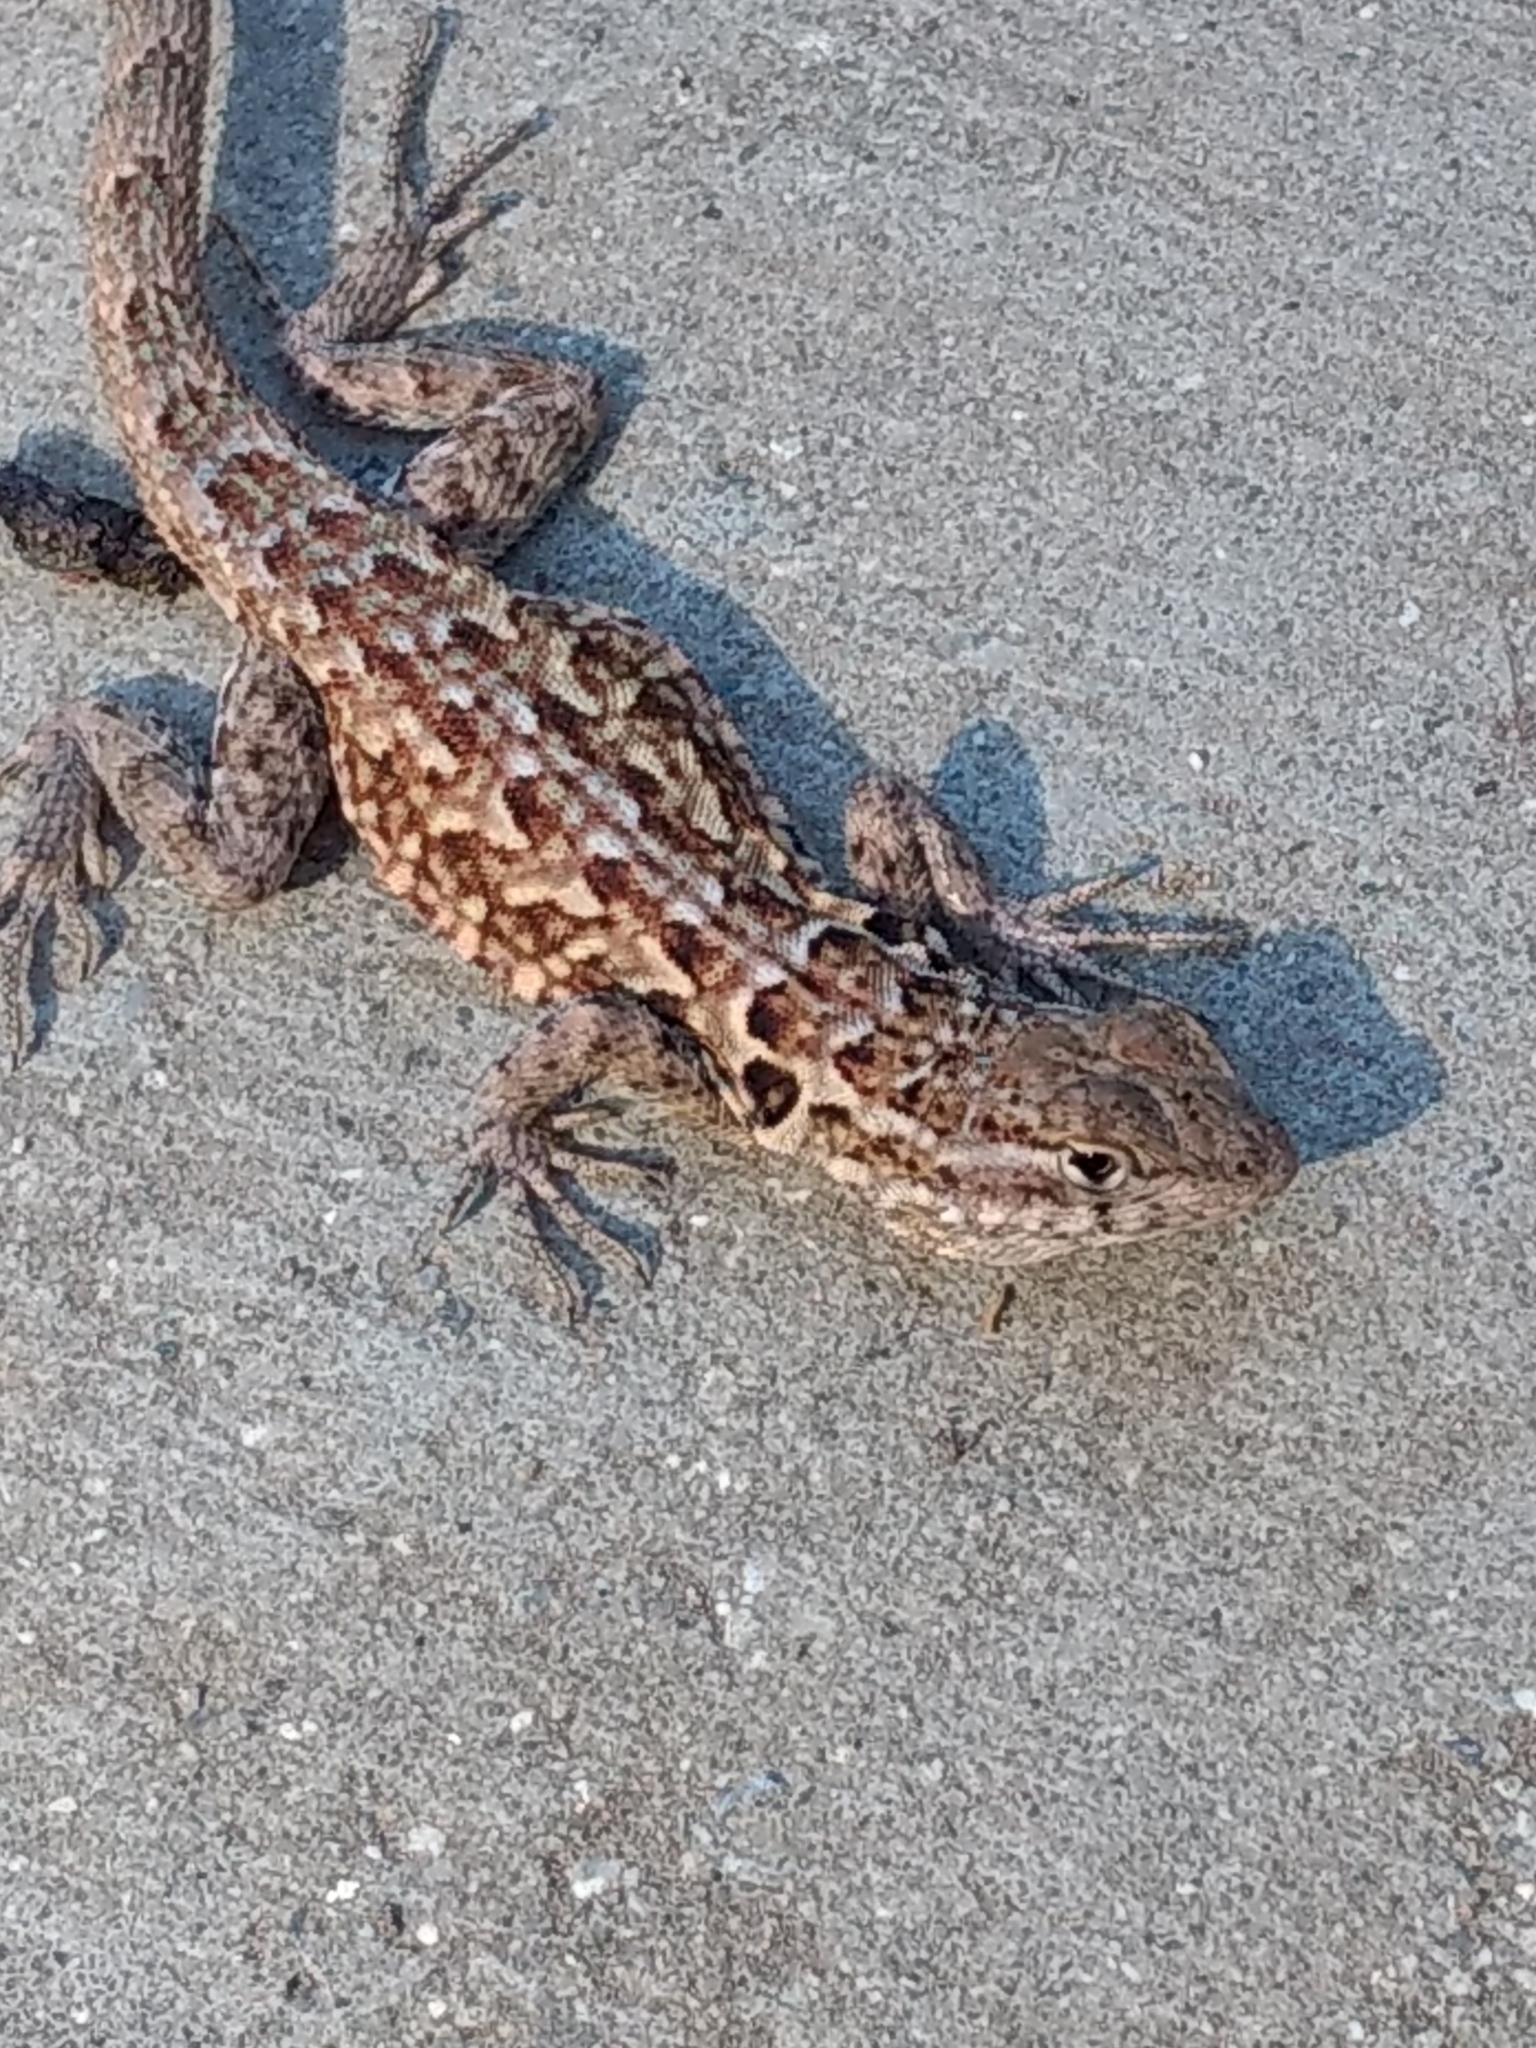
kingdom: Animalia
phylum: Chordata
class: Squamata
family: Phrynosomatidae
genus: Uta
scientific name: Uta stansburiana
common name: Side-blotched lizard
